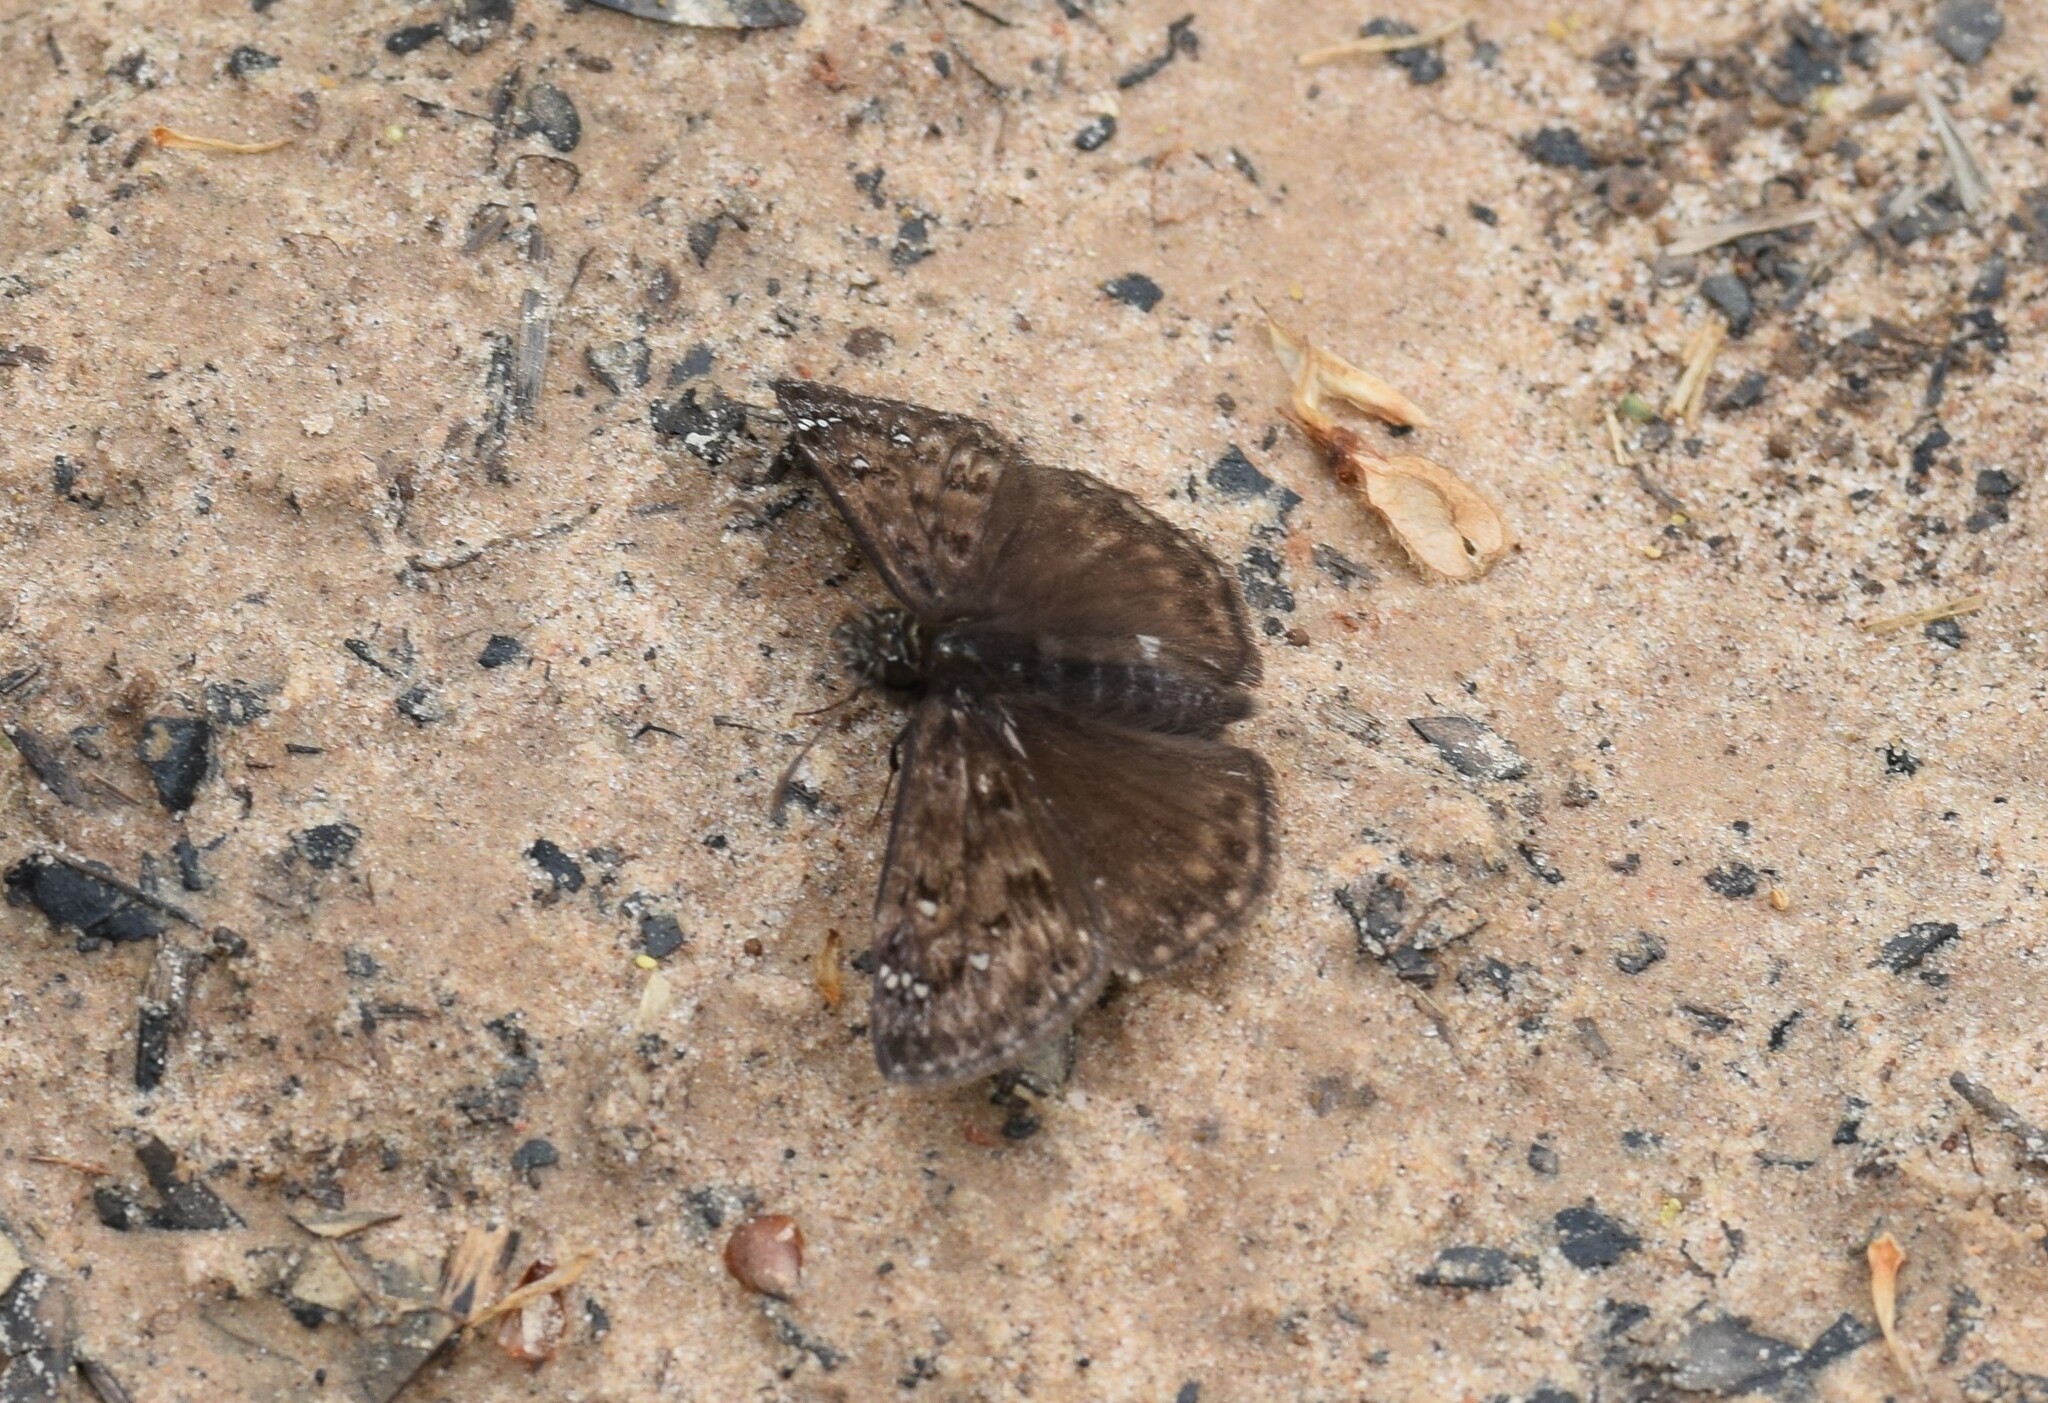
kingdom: Animalia
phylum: Arthropoda
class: Insecta
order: Lepidoptera
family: Hesperiidae
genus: Erynnis
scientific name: Erynnis horatius
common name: Horace's duskywing
